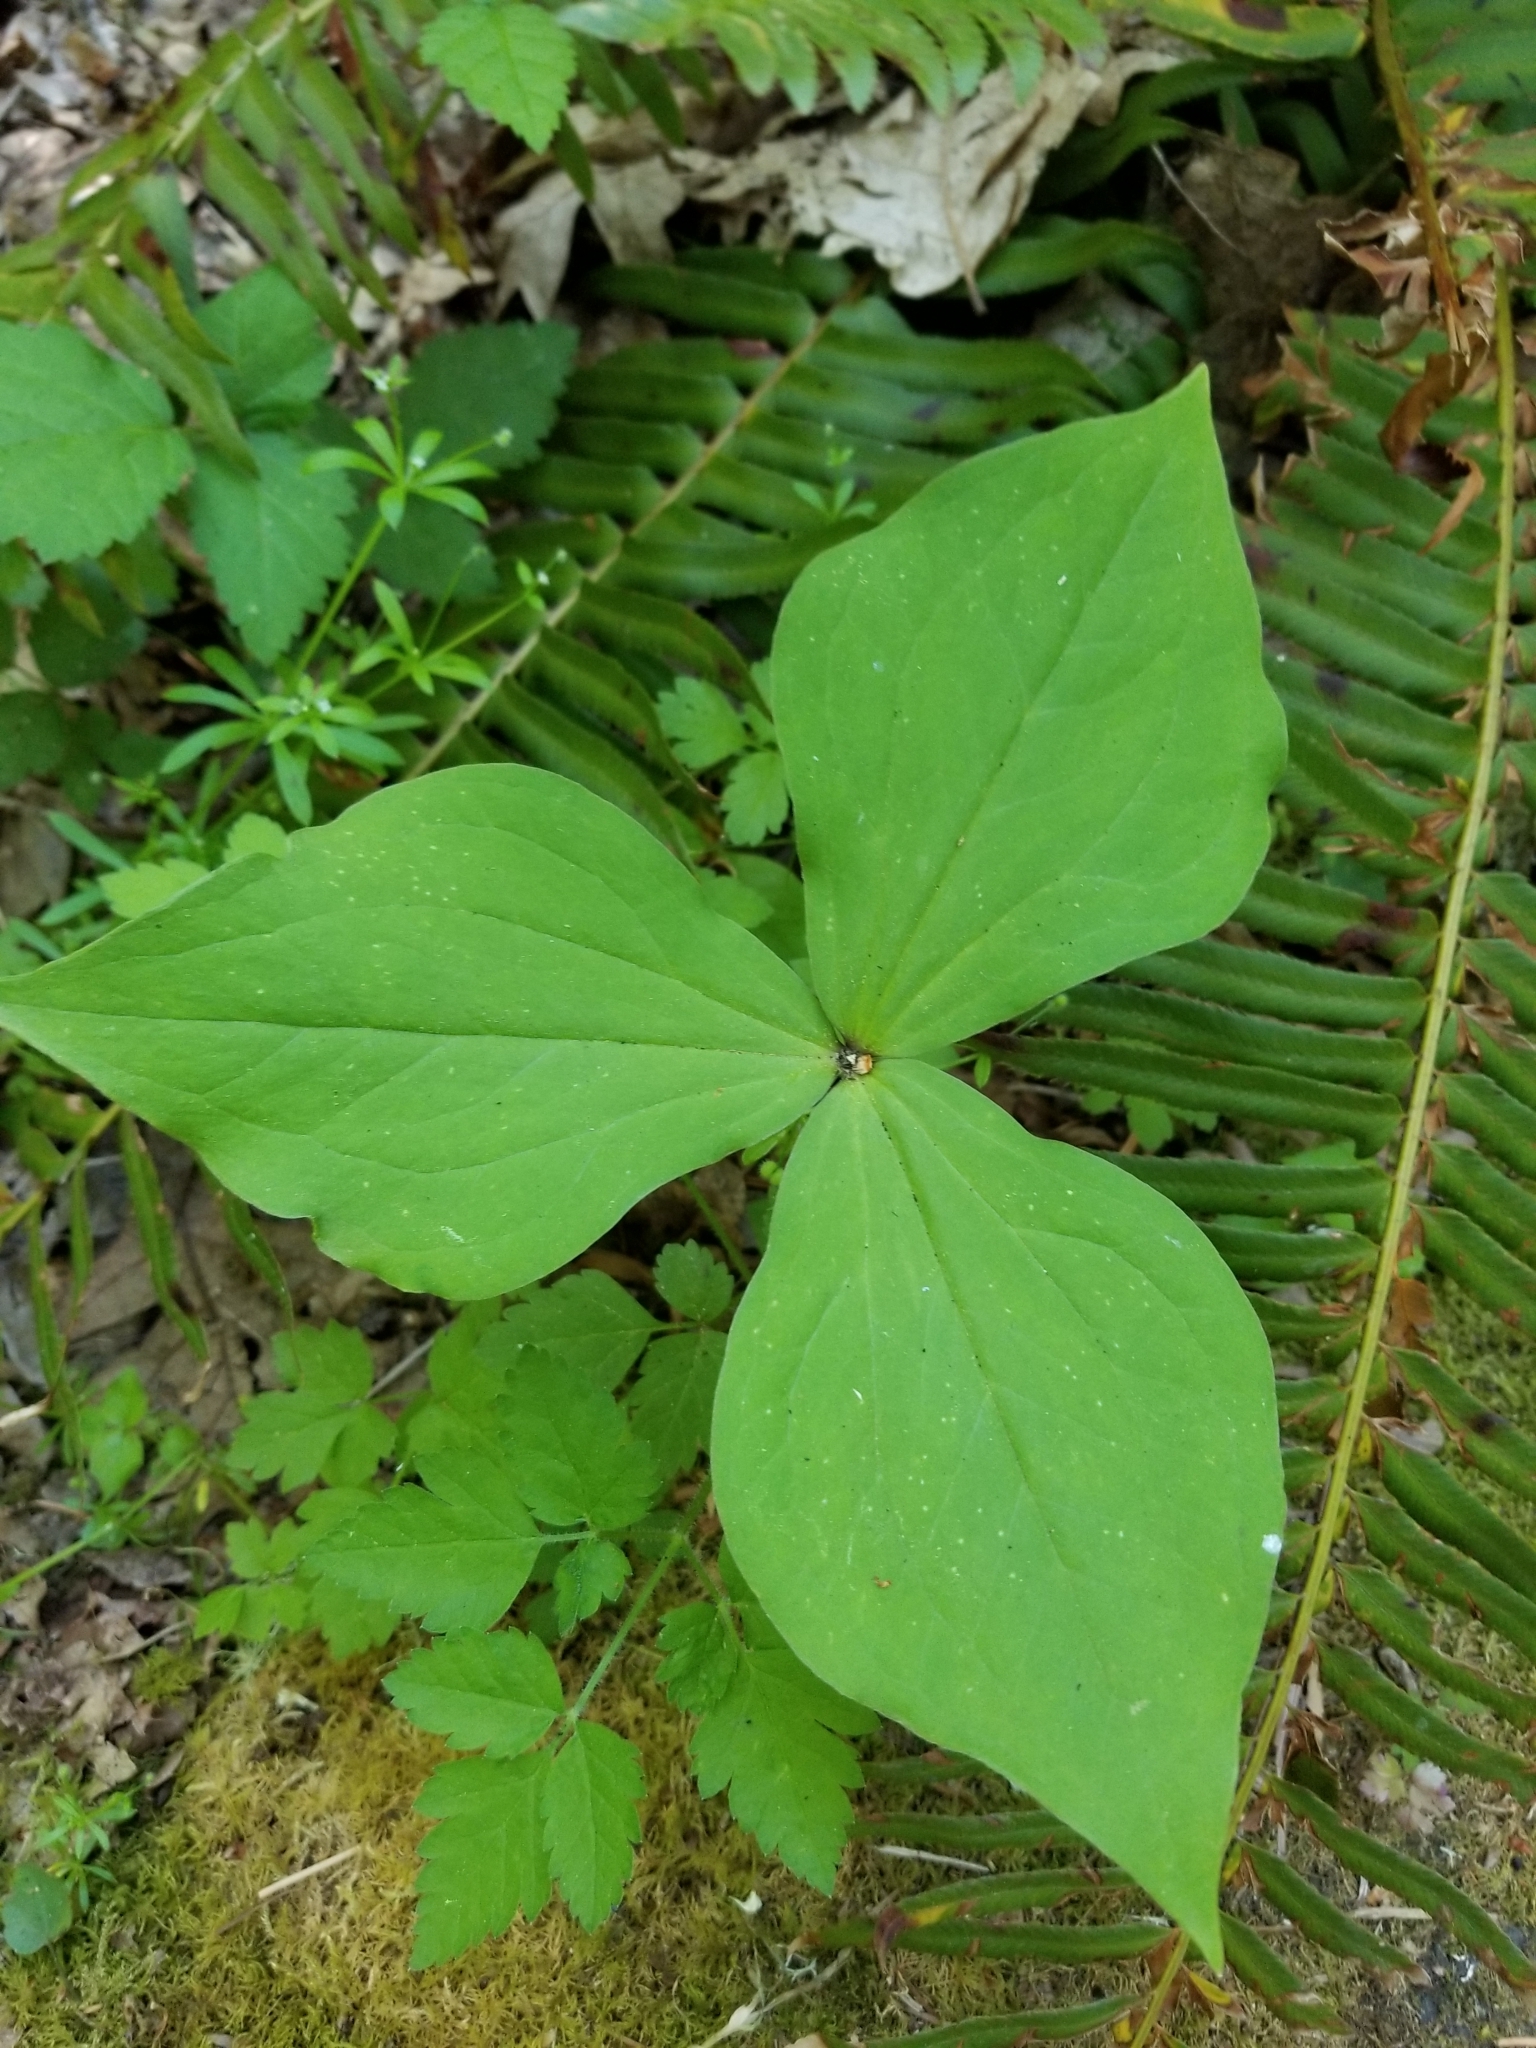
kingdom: Plantae
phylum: Tracheophyta
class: Liliopsida
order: Liliales
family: Melanthiaceae
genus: Trillium
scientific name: Trillium ovatum
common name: Pacific trillium
